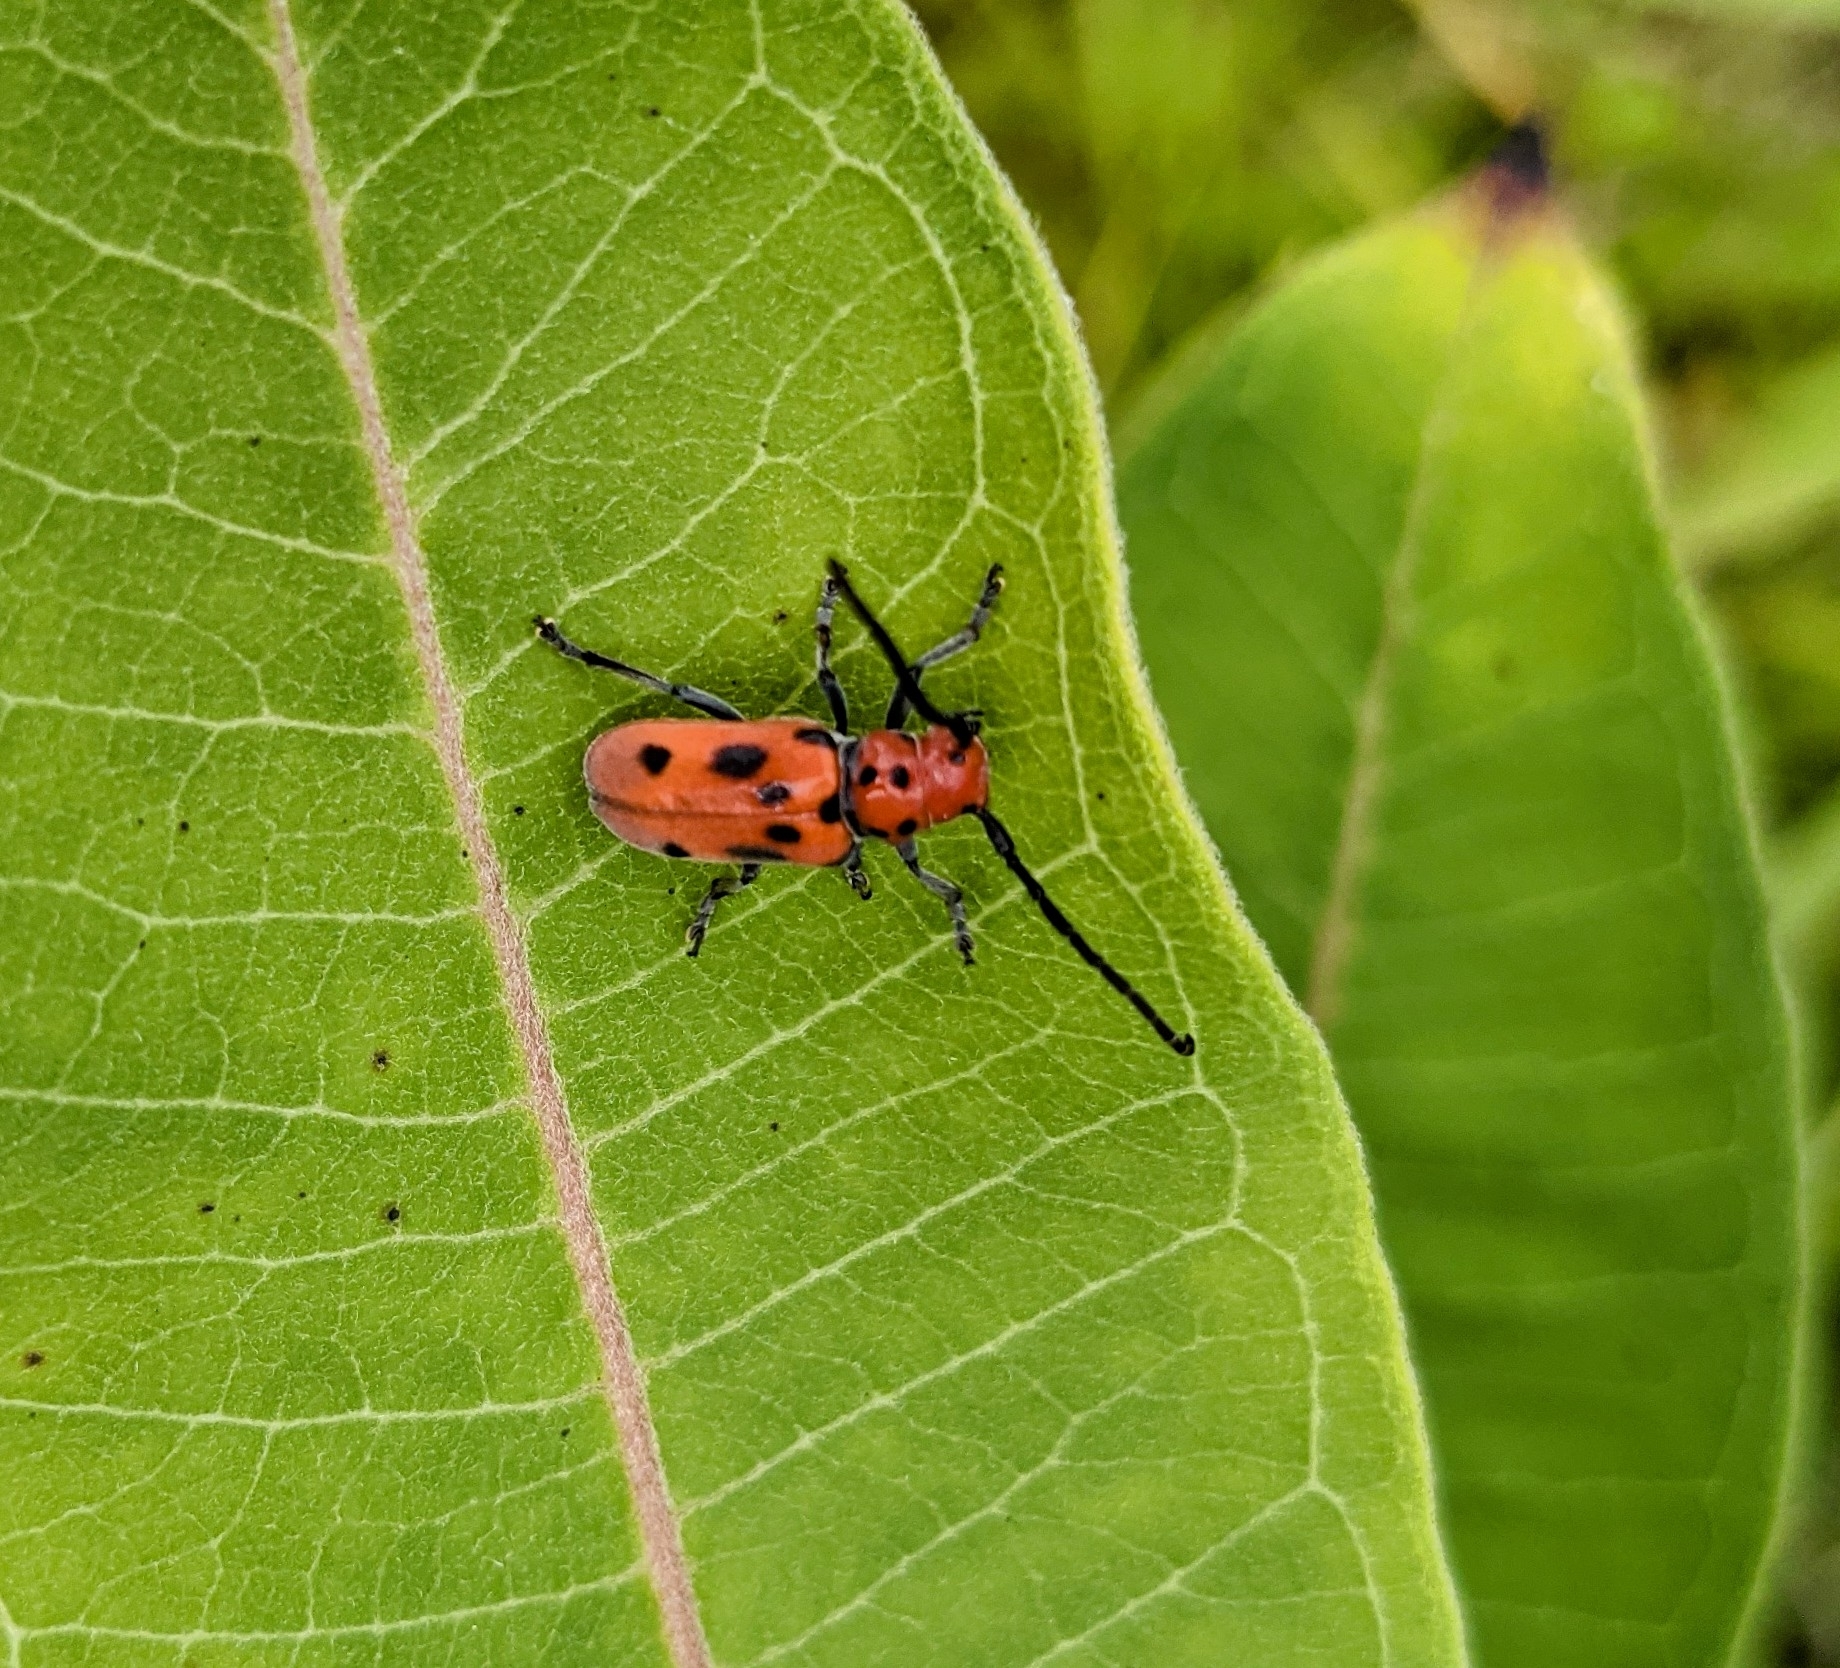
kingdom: Animalia
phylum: Arthropoda
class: Insecta
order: Coleoptera
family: Cerambycidae
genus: Tetraopes
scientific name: Tetraopes tetrophthalmus
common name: Red milkweed beetle
